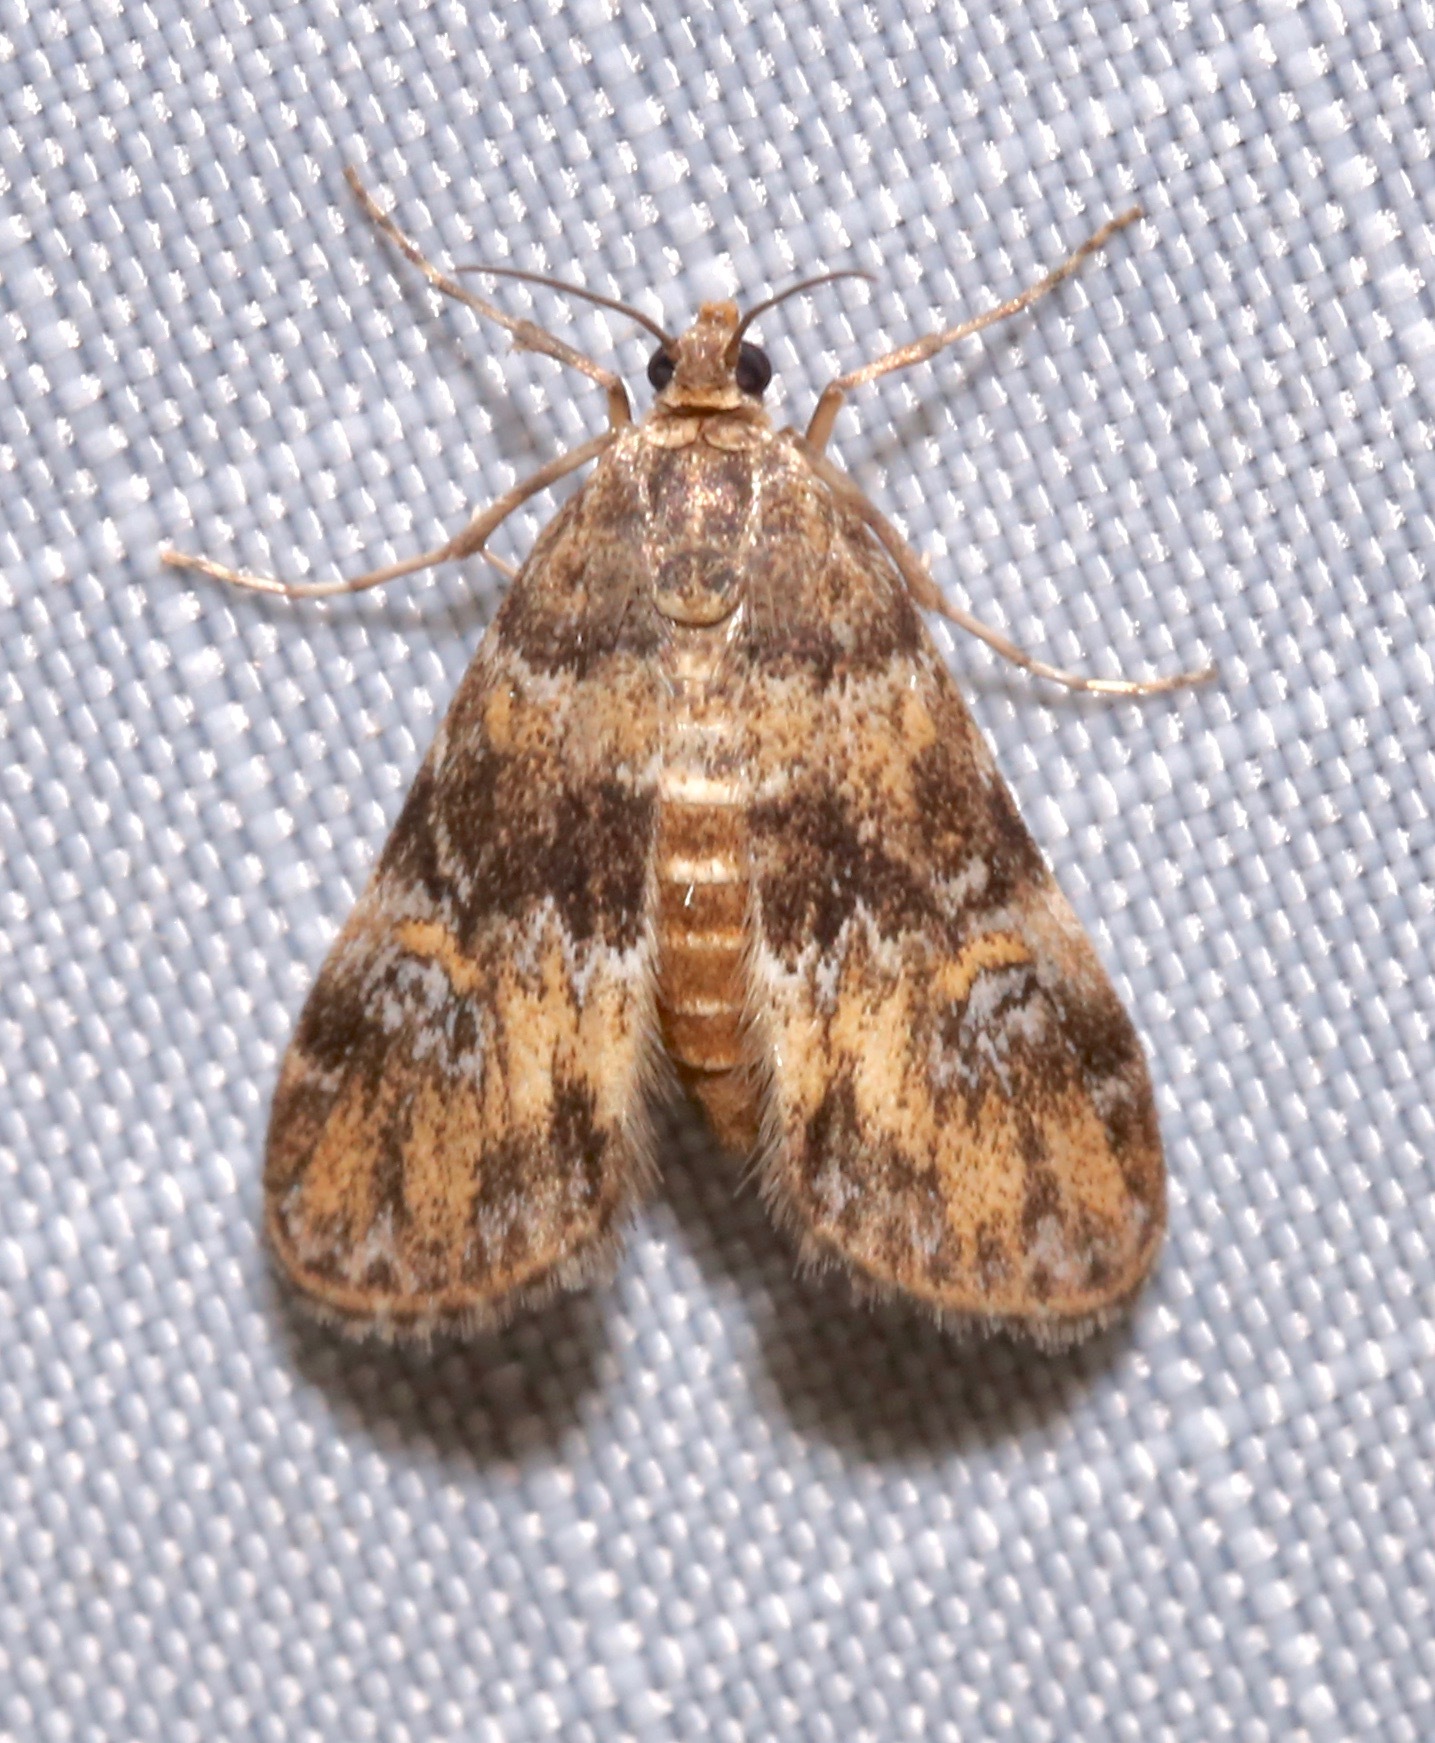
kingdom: Animalia
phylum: Arthropoda
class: Insecta
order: Lepidoptera
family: Crambidae
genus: Elophila
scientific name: Elophila obliteralis
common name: Waterlily leafcutter moth
